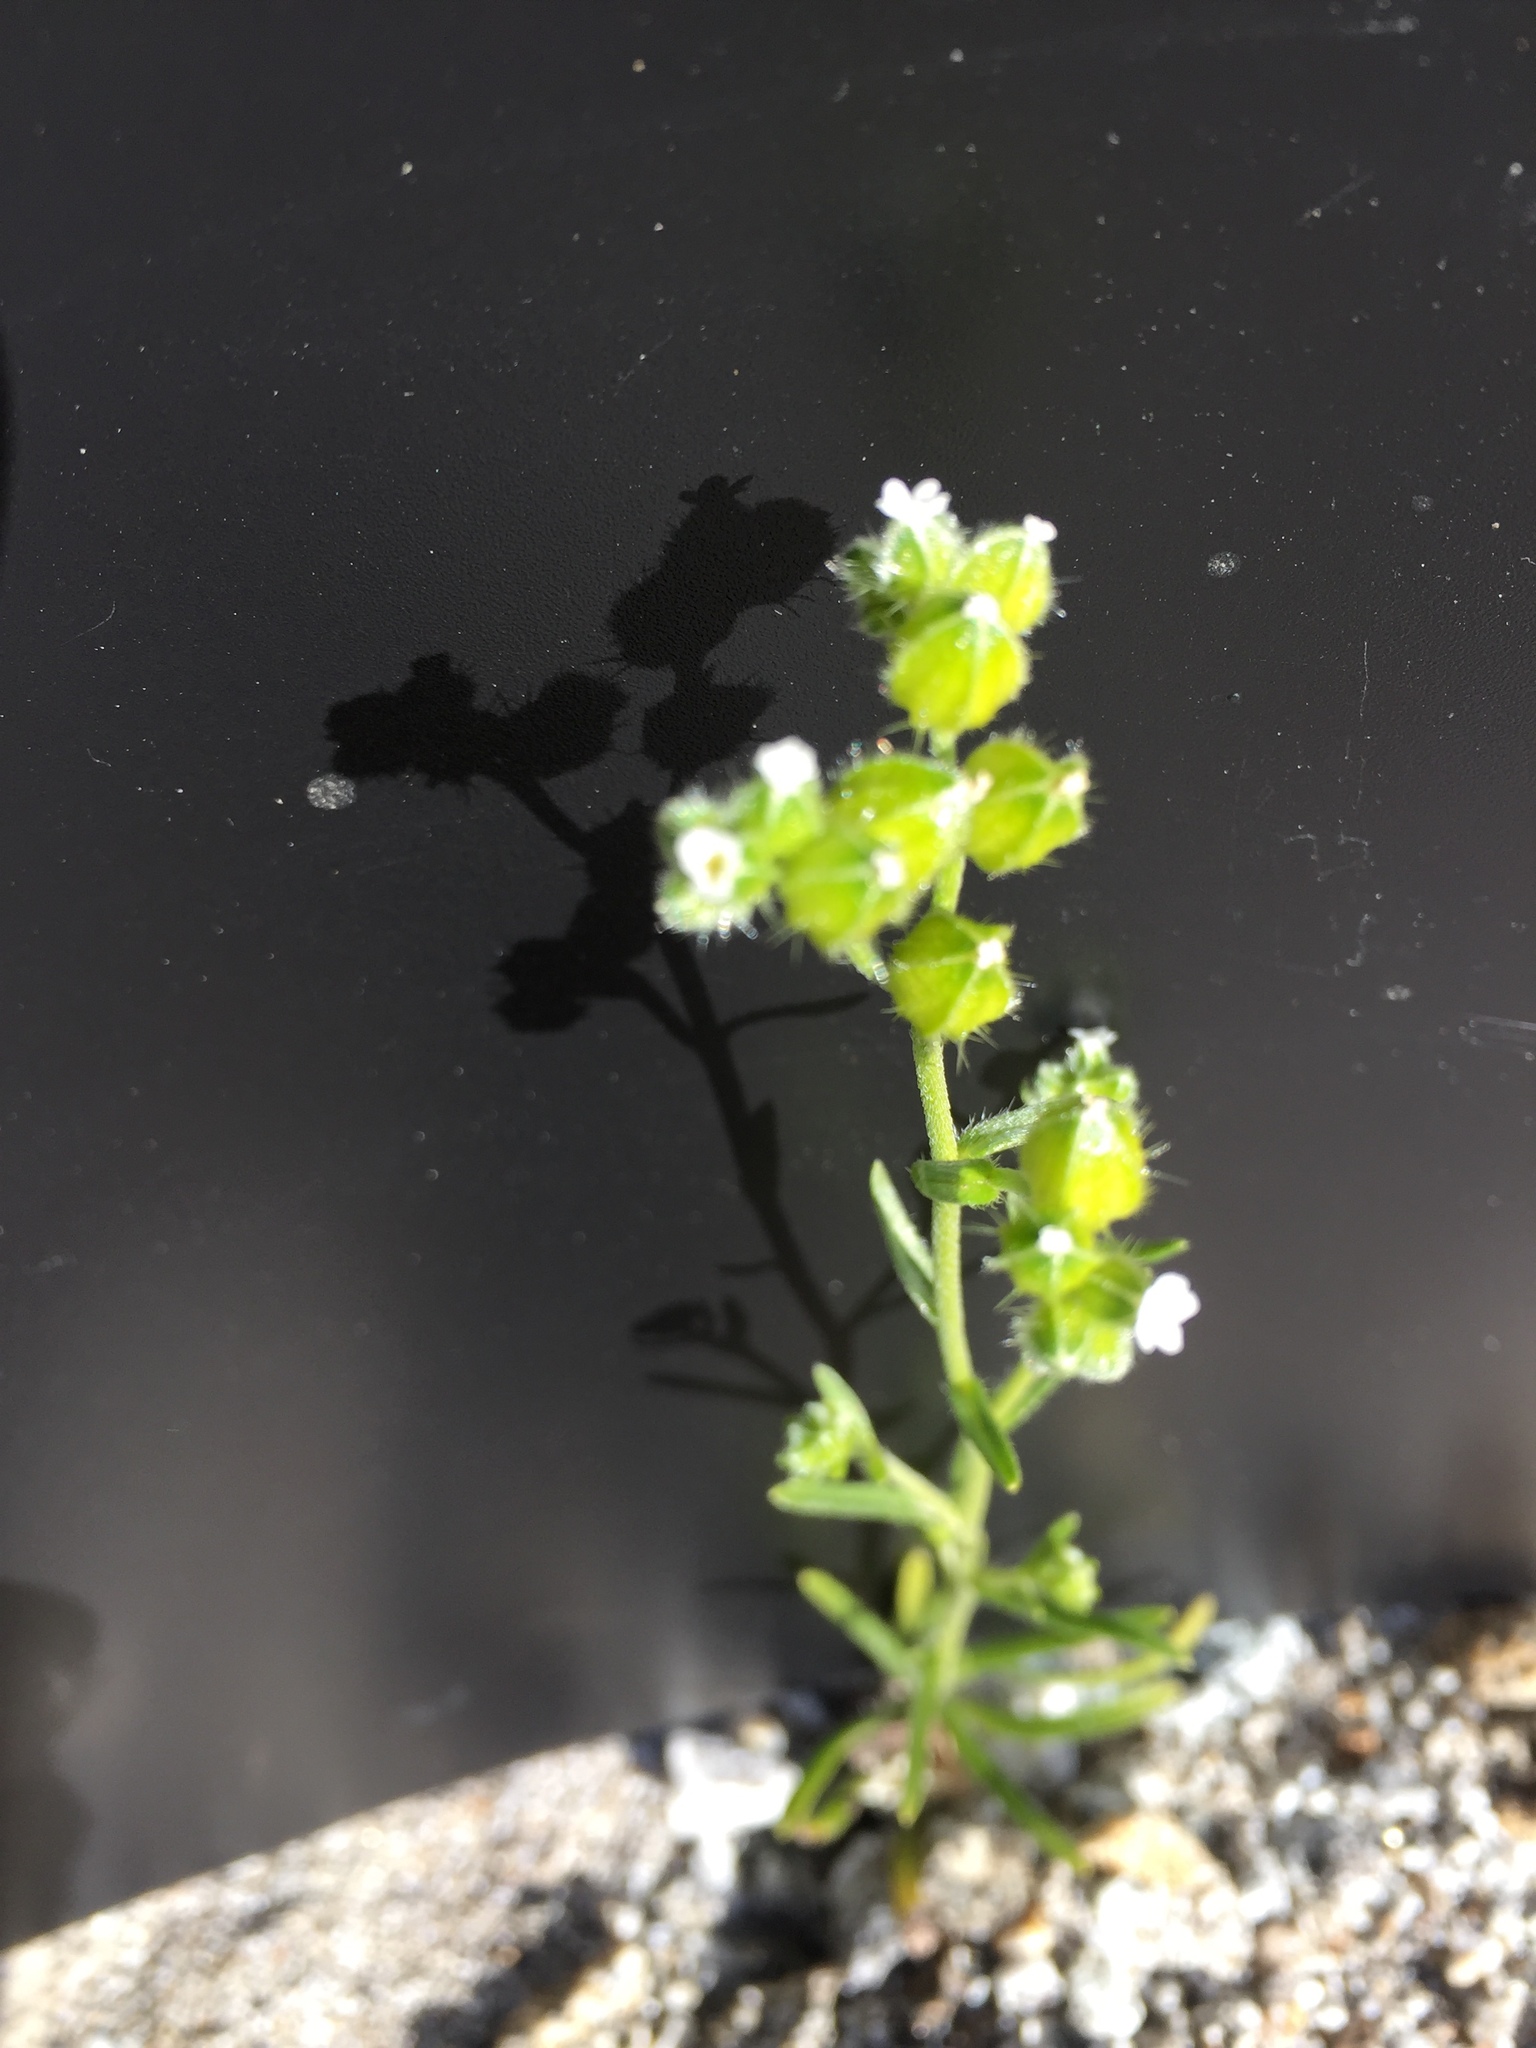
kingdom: Plantae
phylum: Tracheophyta
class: Magnoliopsida
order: Boraginales
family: Boraginaceae
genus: Cryptantha
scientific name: Cryptantha pterocarya
